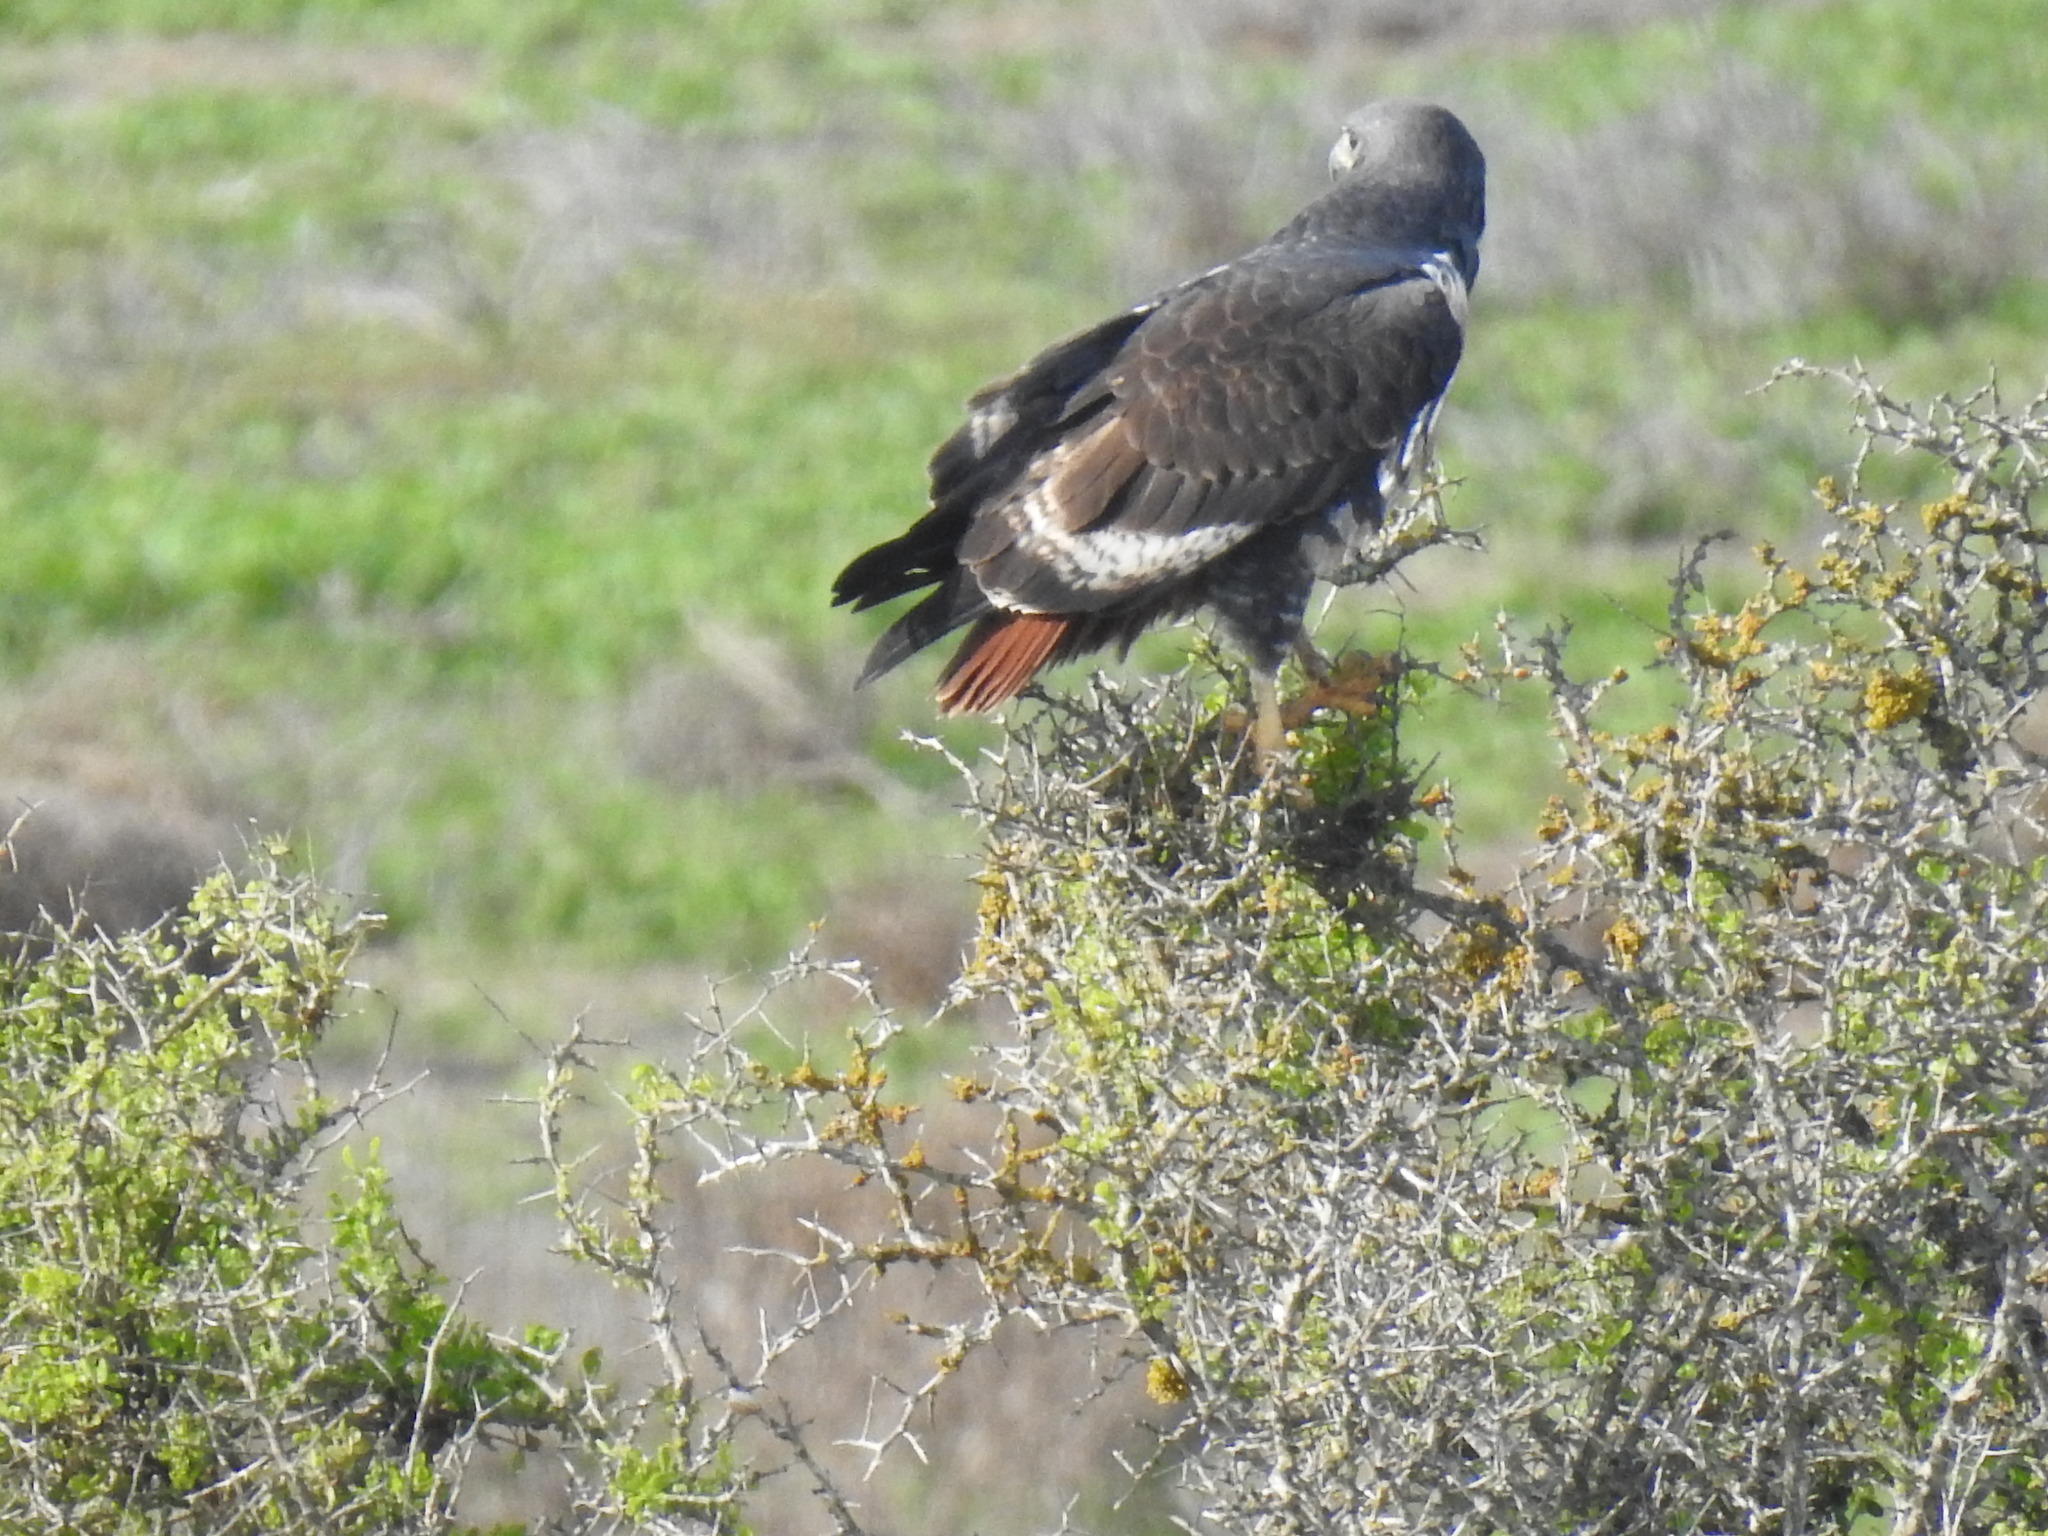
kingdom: Animalia
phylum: Chordata
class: Aves
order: Accipitriformes
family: Accipitridae
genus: Buteo
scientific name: Buteo rufofuscus
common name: Jackal buzzard
